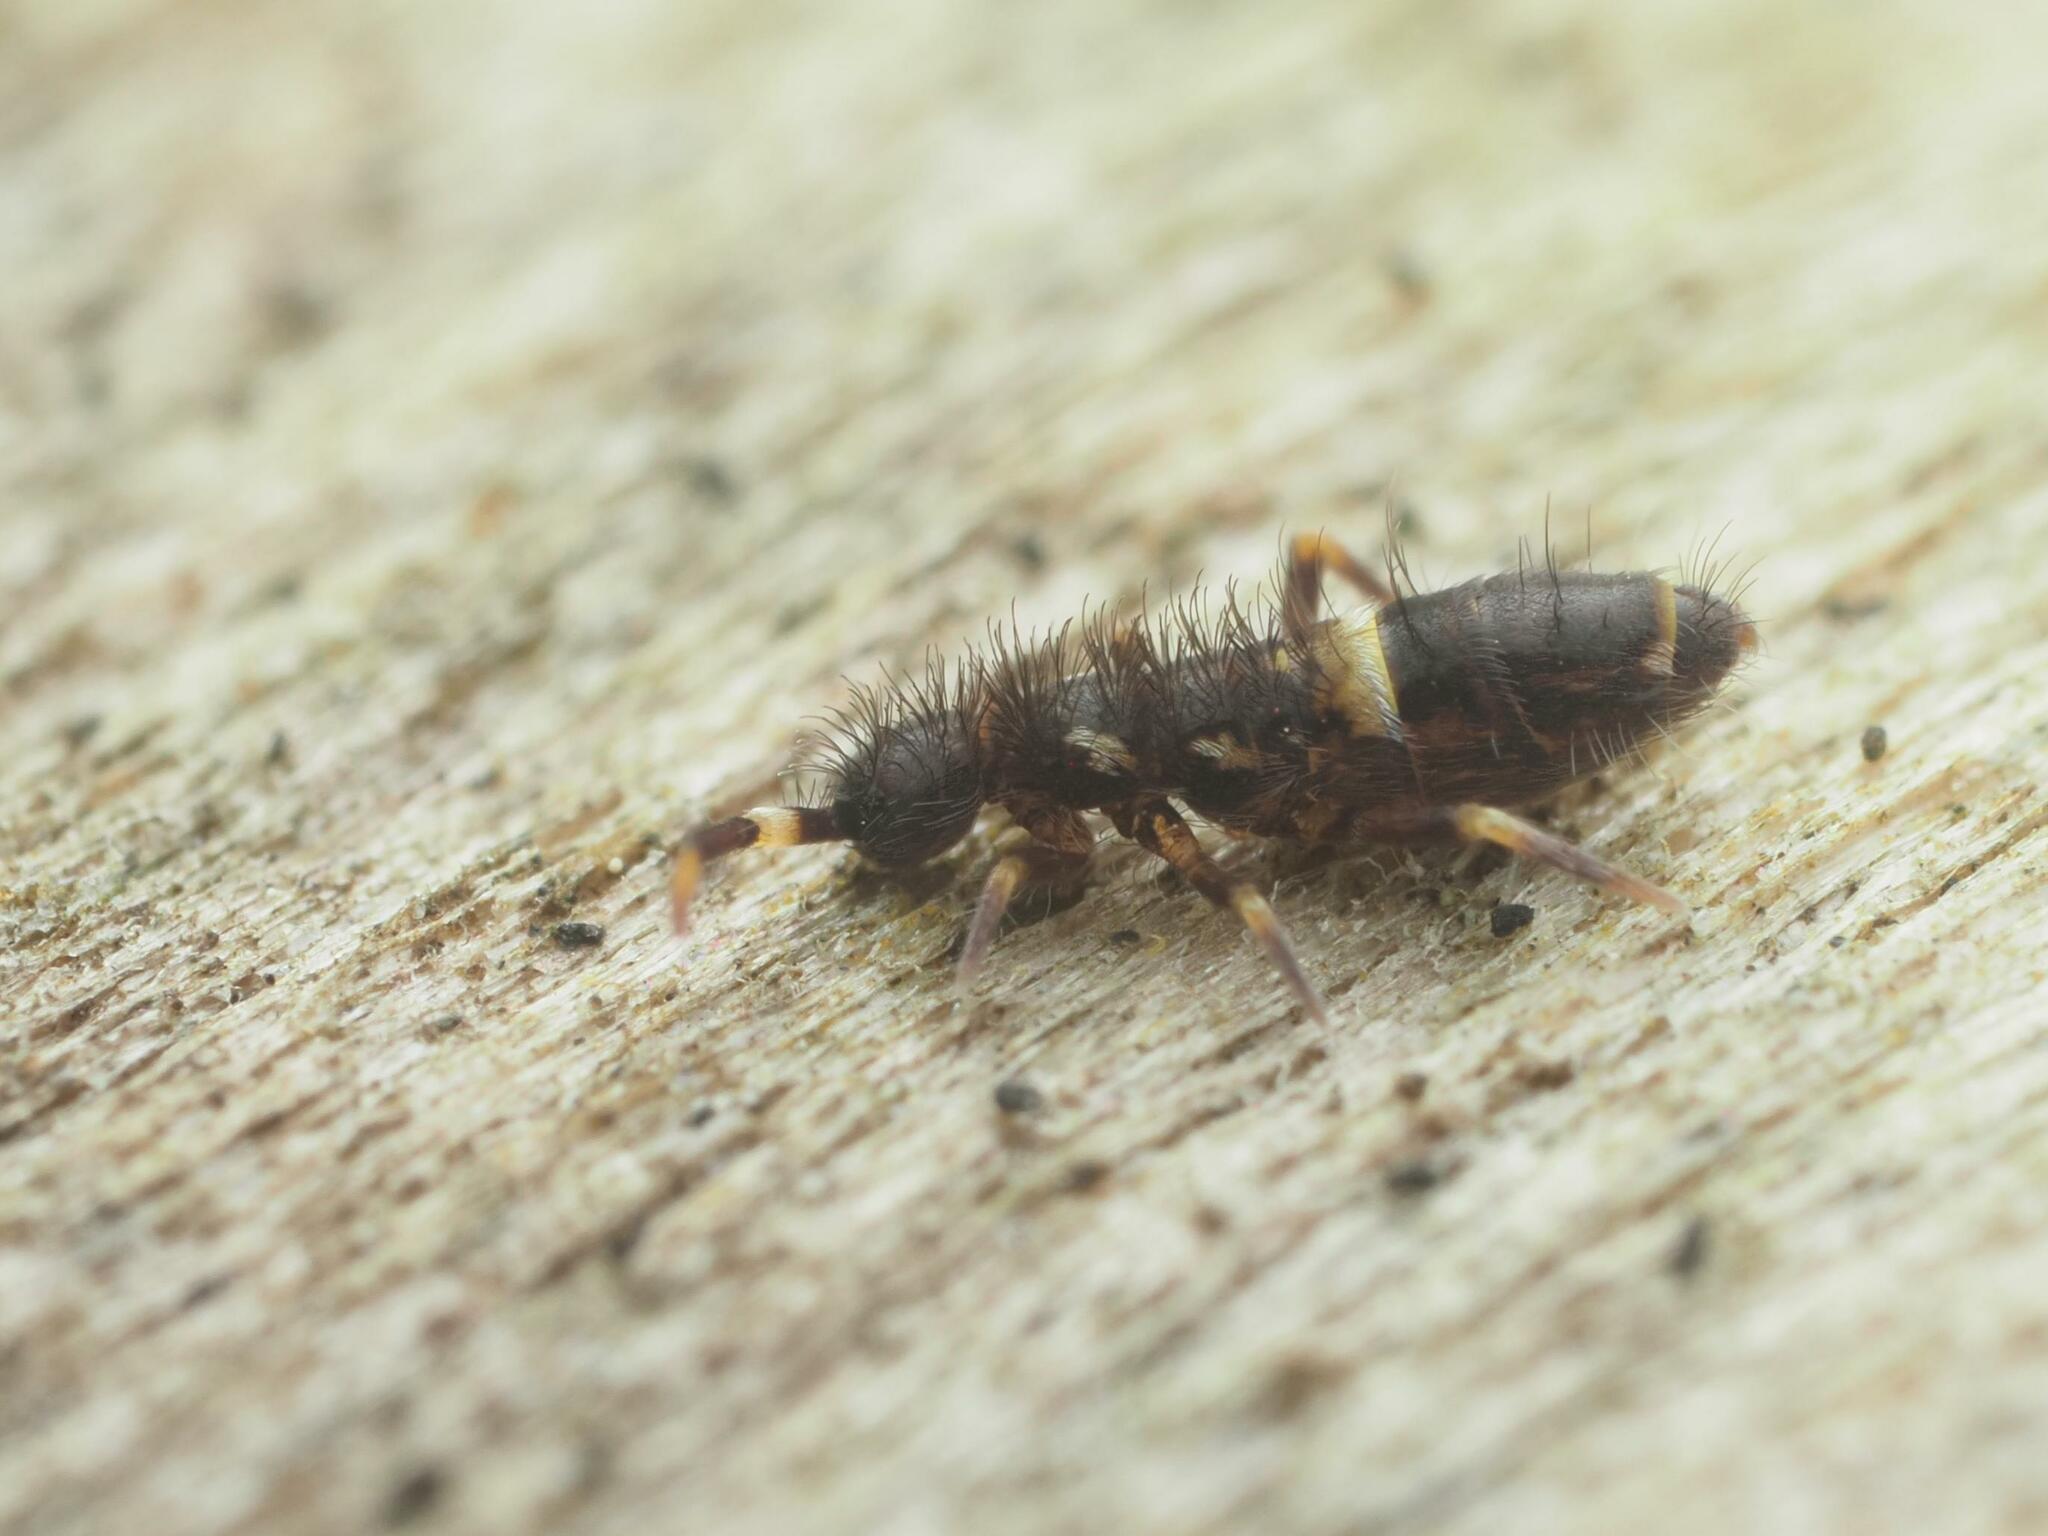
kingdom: Animalia
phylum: Arthropoda
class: Collembola
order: Entomobryomorpha
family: Orchesellidae
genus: Orchesella
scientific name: Orchesella cincta
